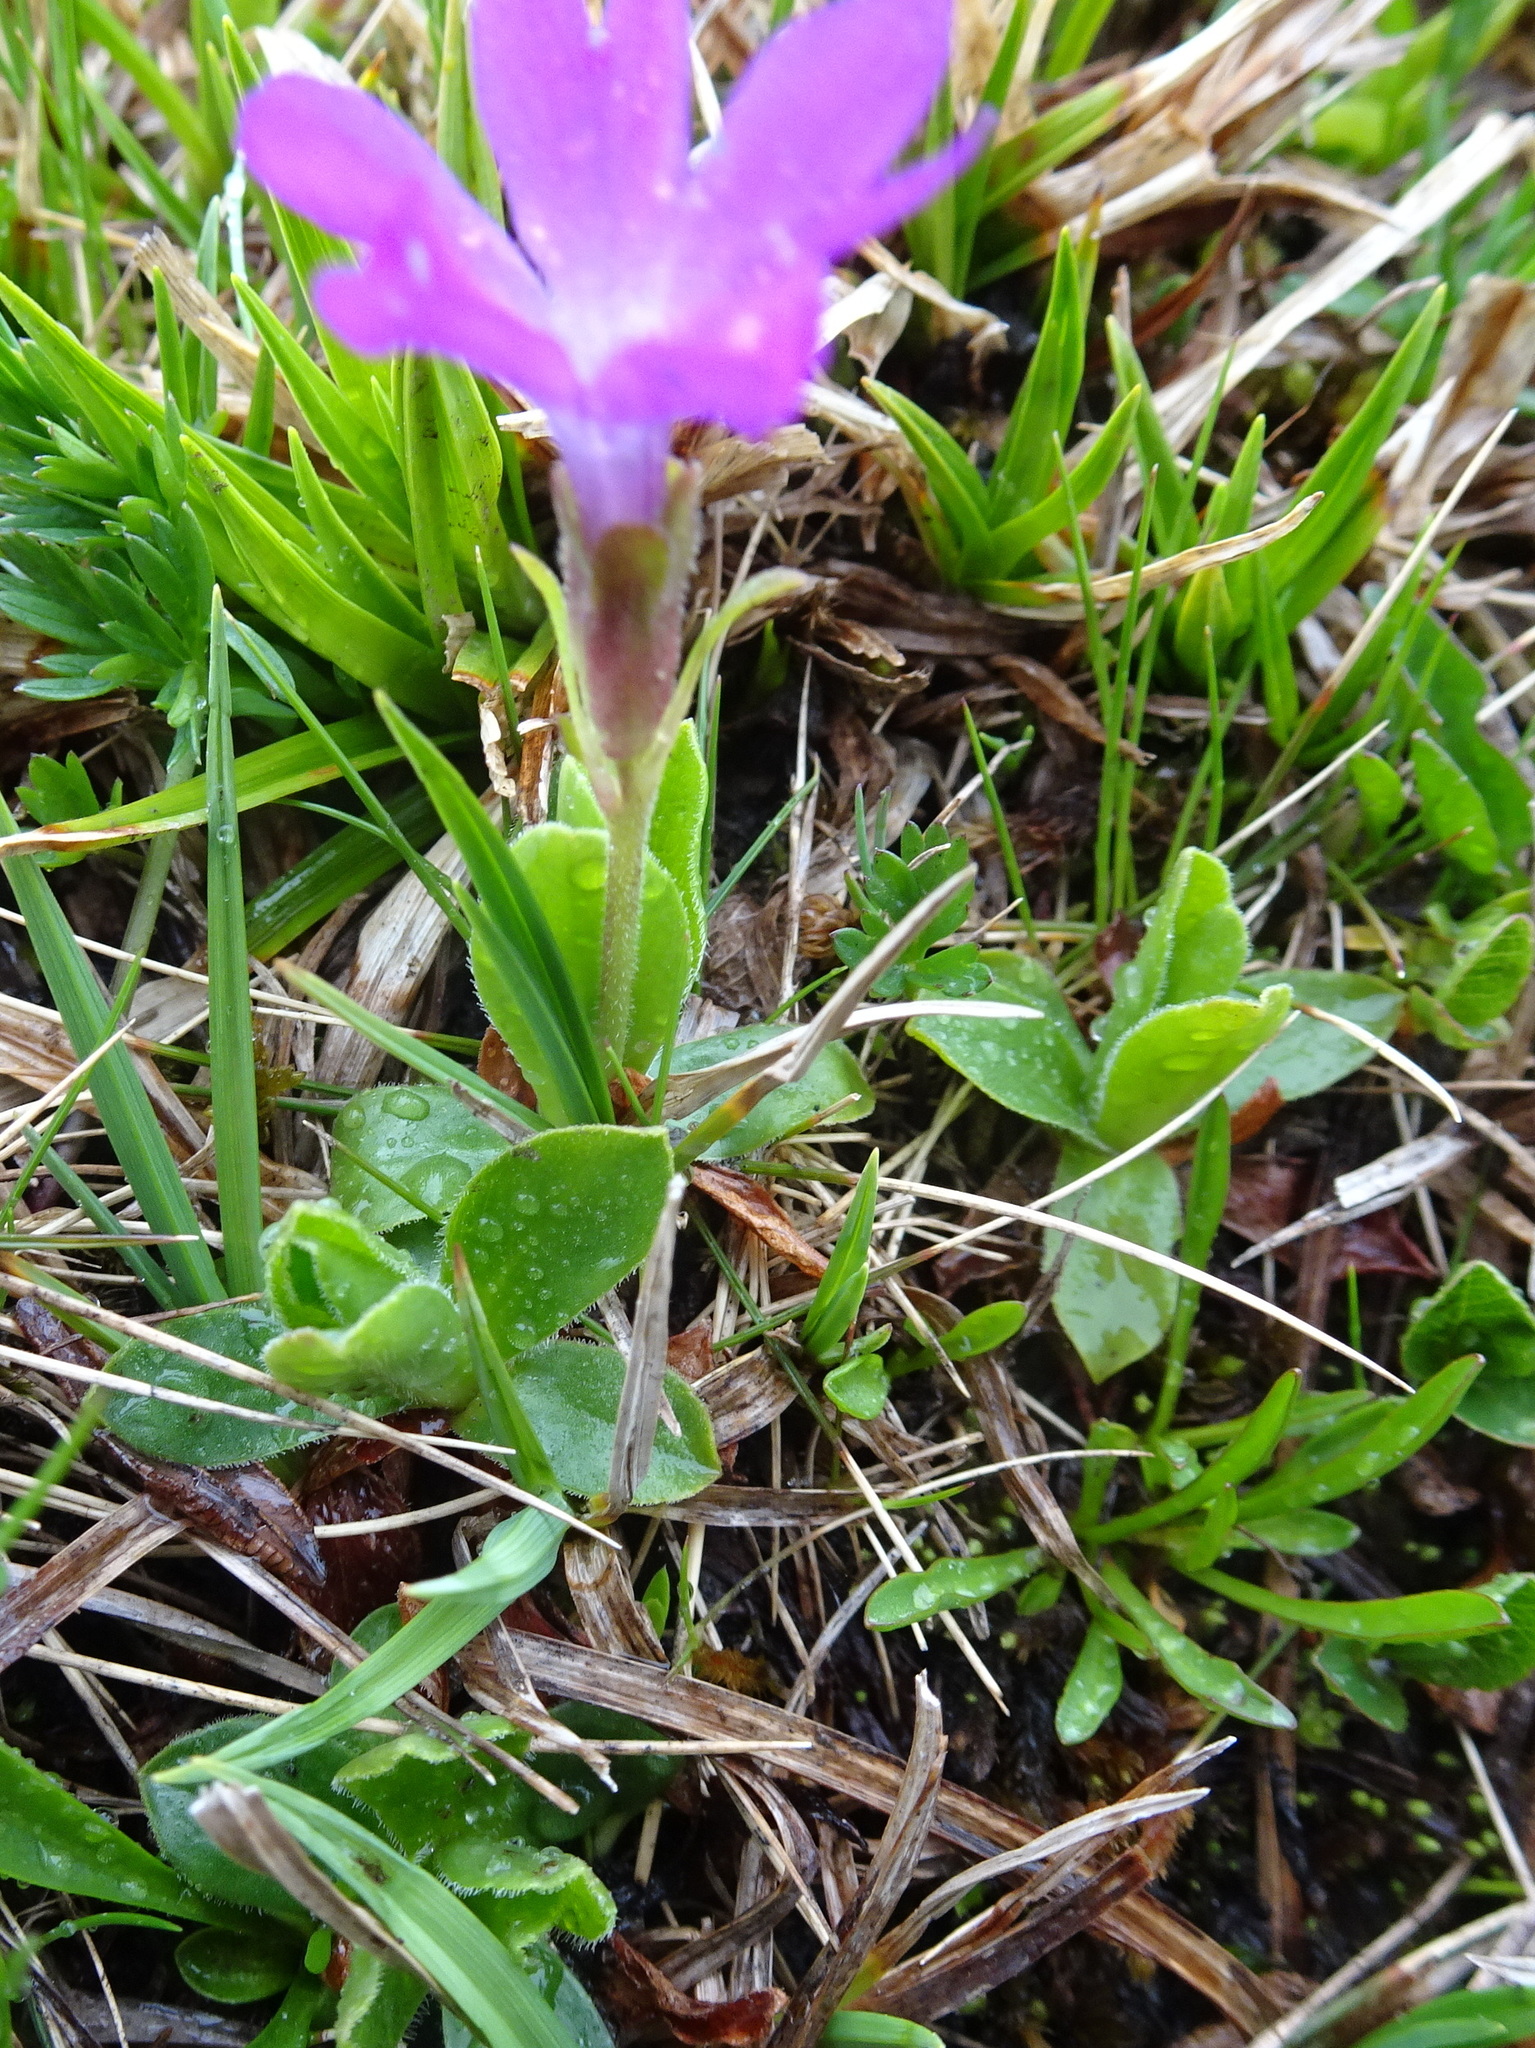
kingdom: Plantae
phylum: Tracheophyta
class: Magnoliopsida
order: Ericales
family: Primulaceae
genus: Primula
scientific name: Primula integrifolia
